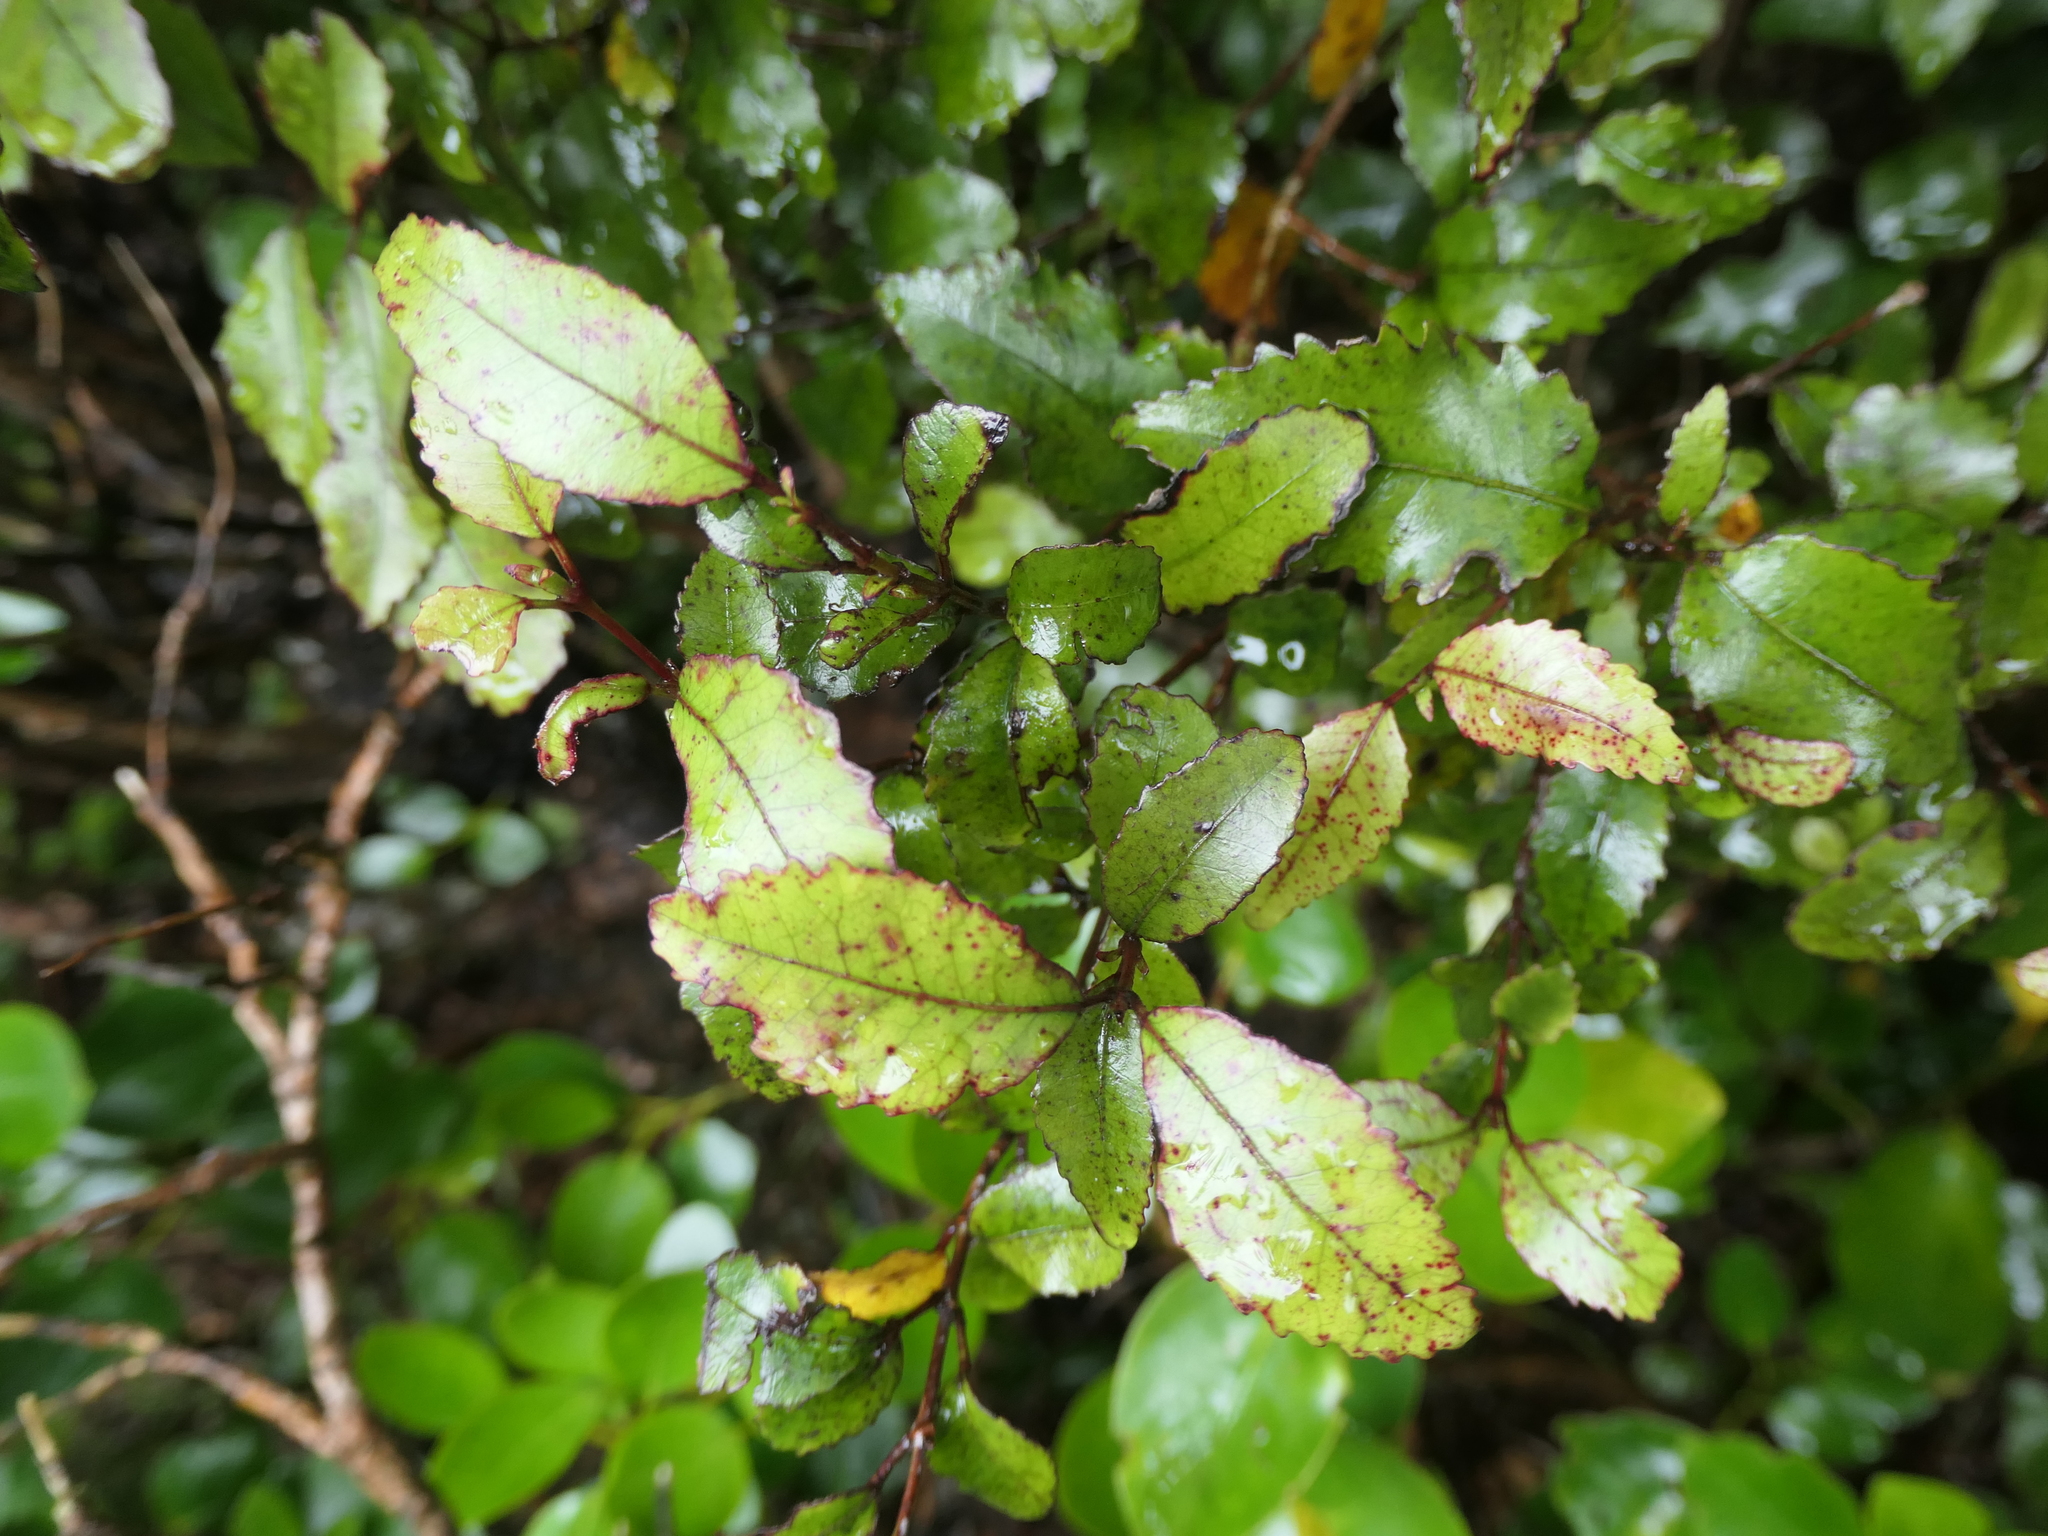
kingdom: Plantae
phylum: Tracheophyta
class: Magnoliopsida
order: Oxalidales
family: Cunoniaceae
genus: Pterophylla
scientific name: Pterophylla racemosa
